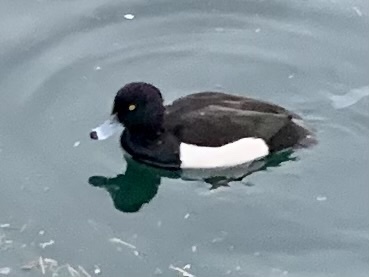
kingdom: Animalia
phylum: Chordata
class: Aves
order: Anseriformes
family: Anatidae
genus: Aythya
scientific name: Aythya fuligula
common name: Tufted duck
